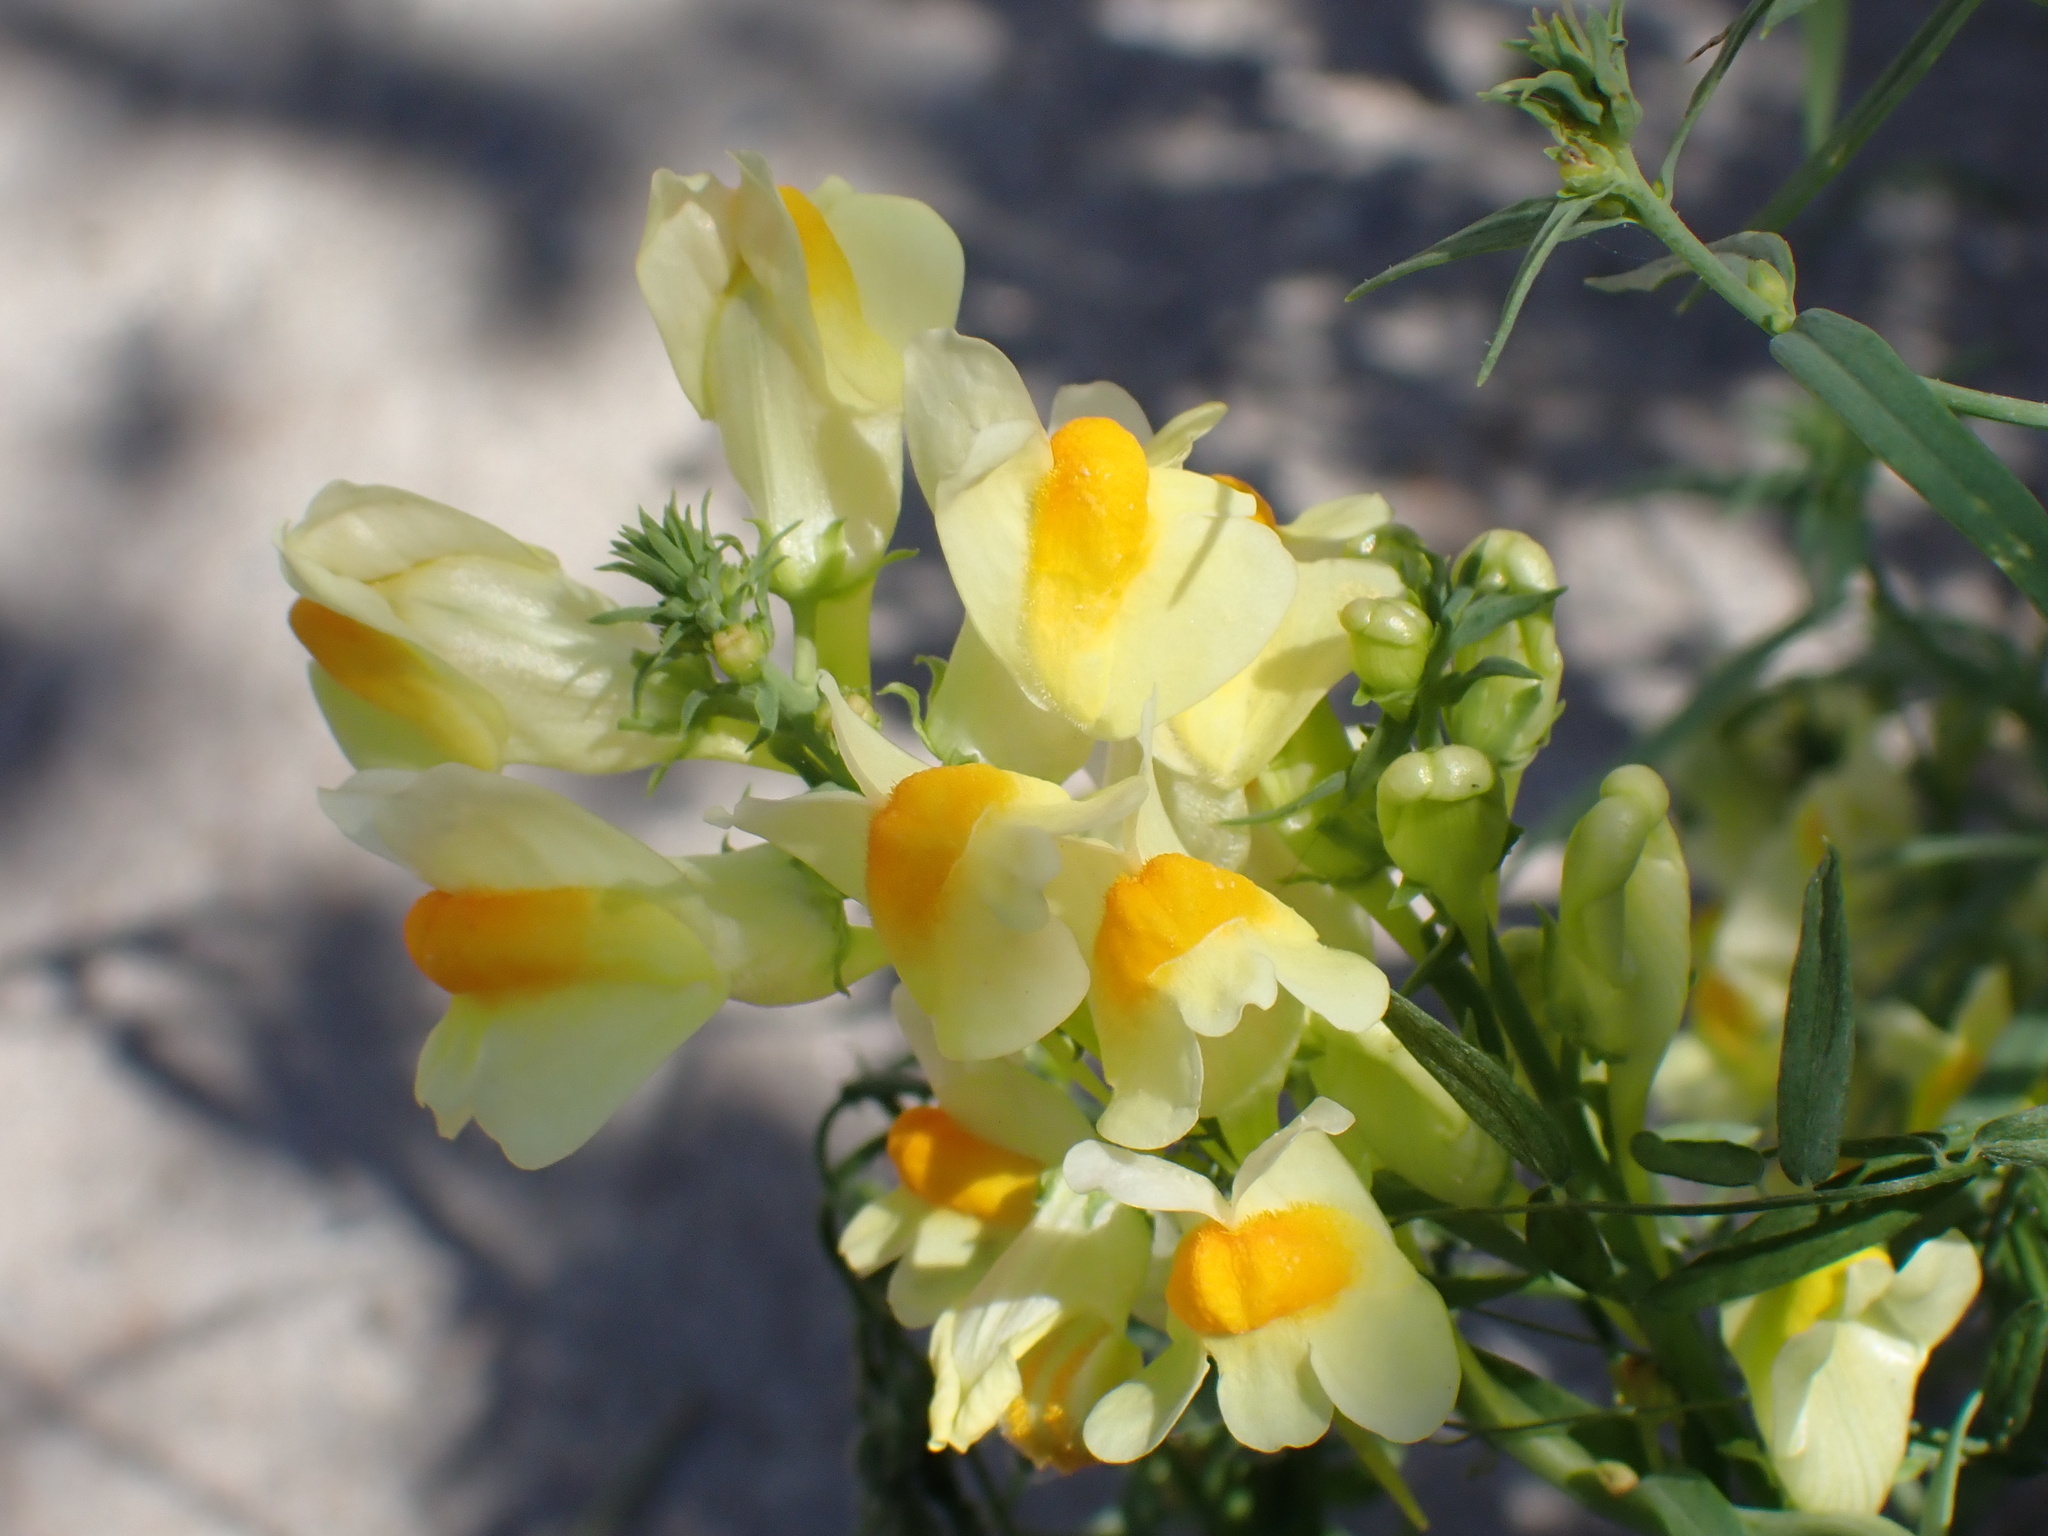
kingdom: Plantae
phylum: Tracheophyta
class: Magnoliopsida
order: Lamiales
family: Plantaginaceae
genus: Linaria
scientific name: Linaria vulgaris
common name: Butter and eggs
